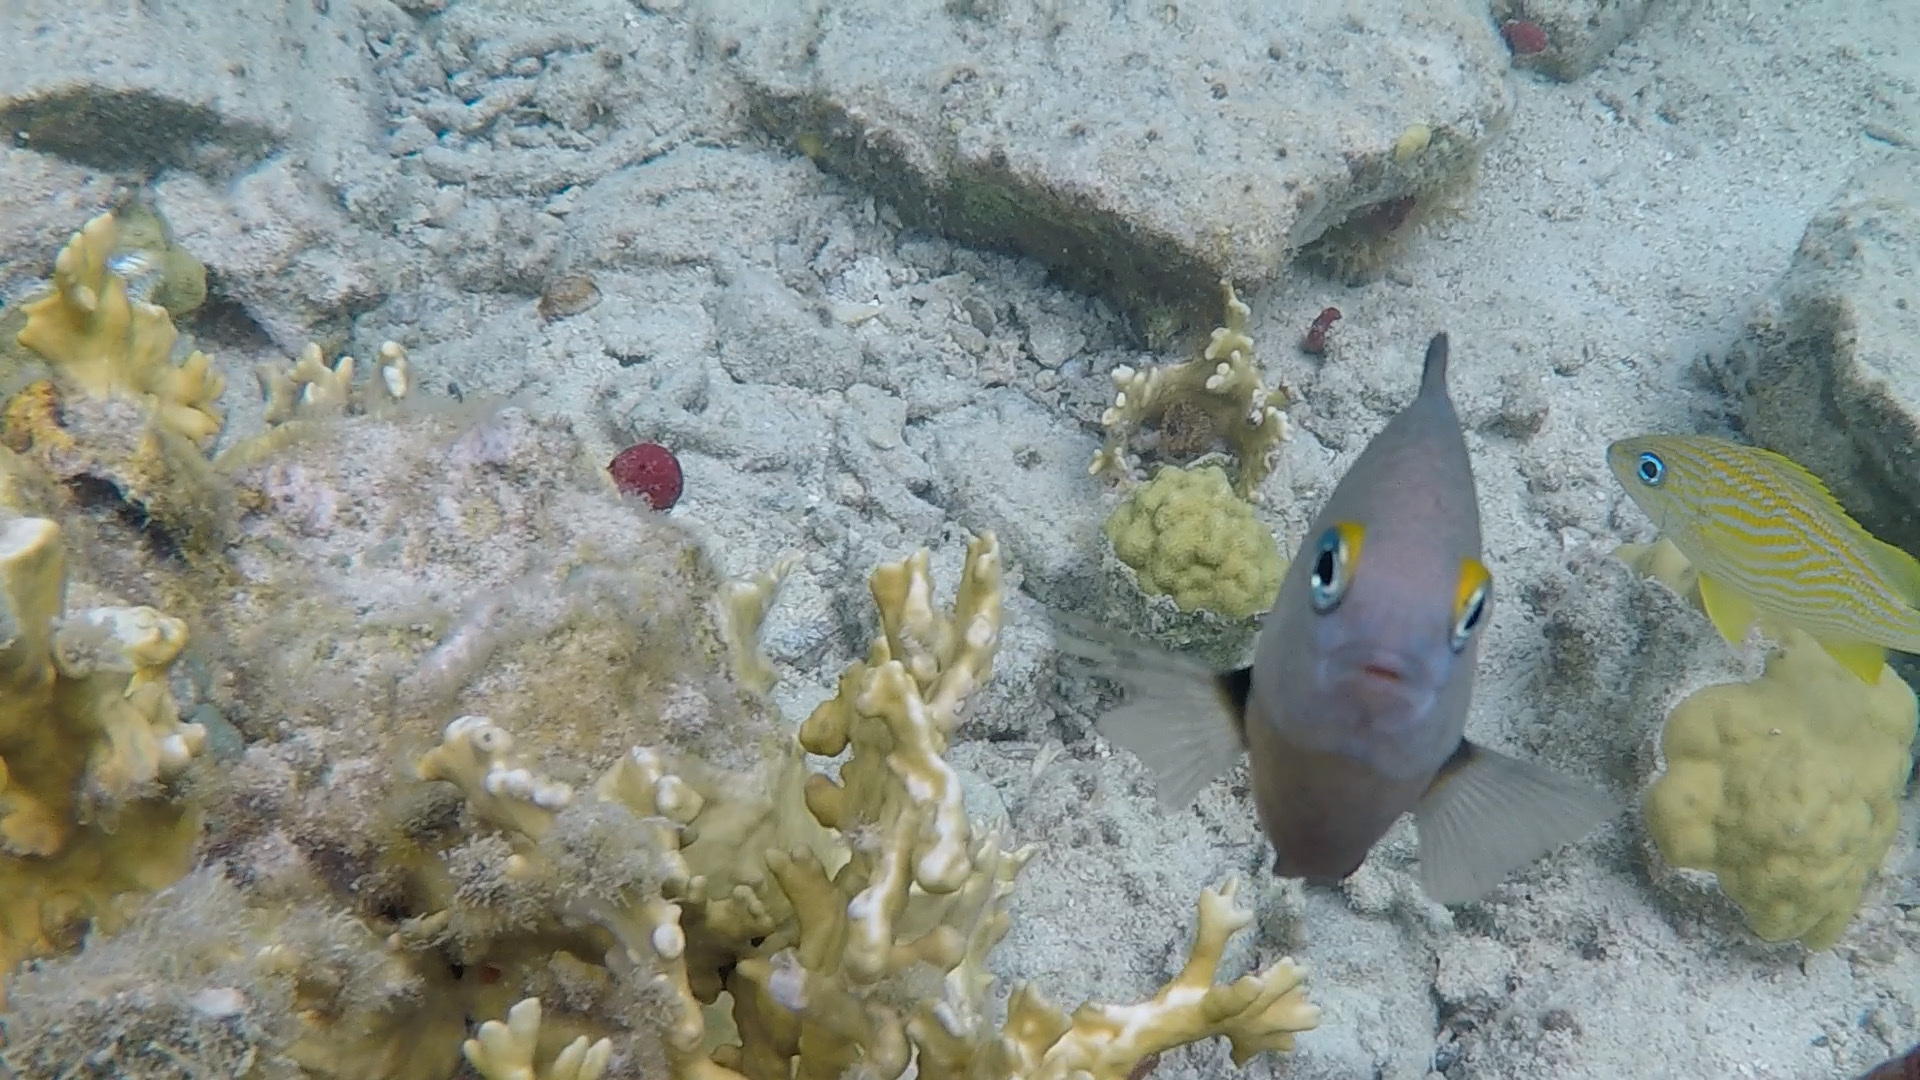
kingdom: Animalia
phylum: Chordata
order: Perciformes
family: Pomacentridae
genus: Stegastes
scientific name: Stegastes planifrons
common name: Threespot damselfish
